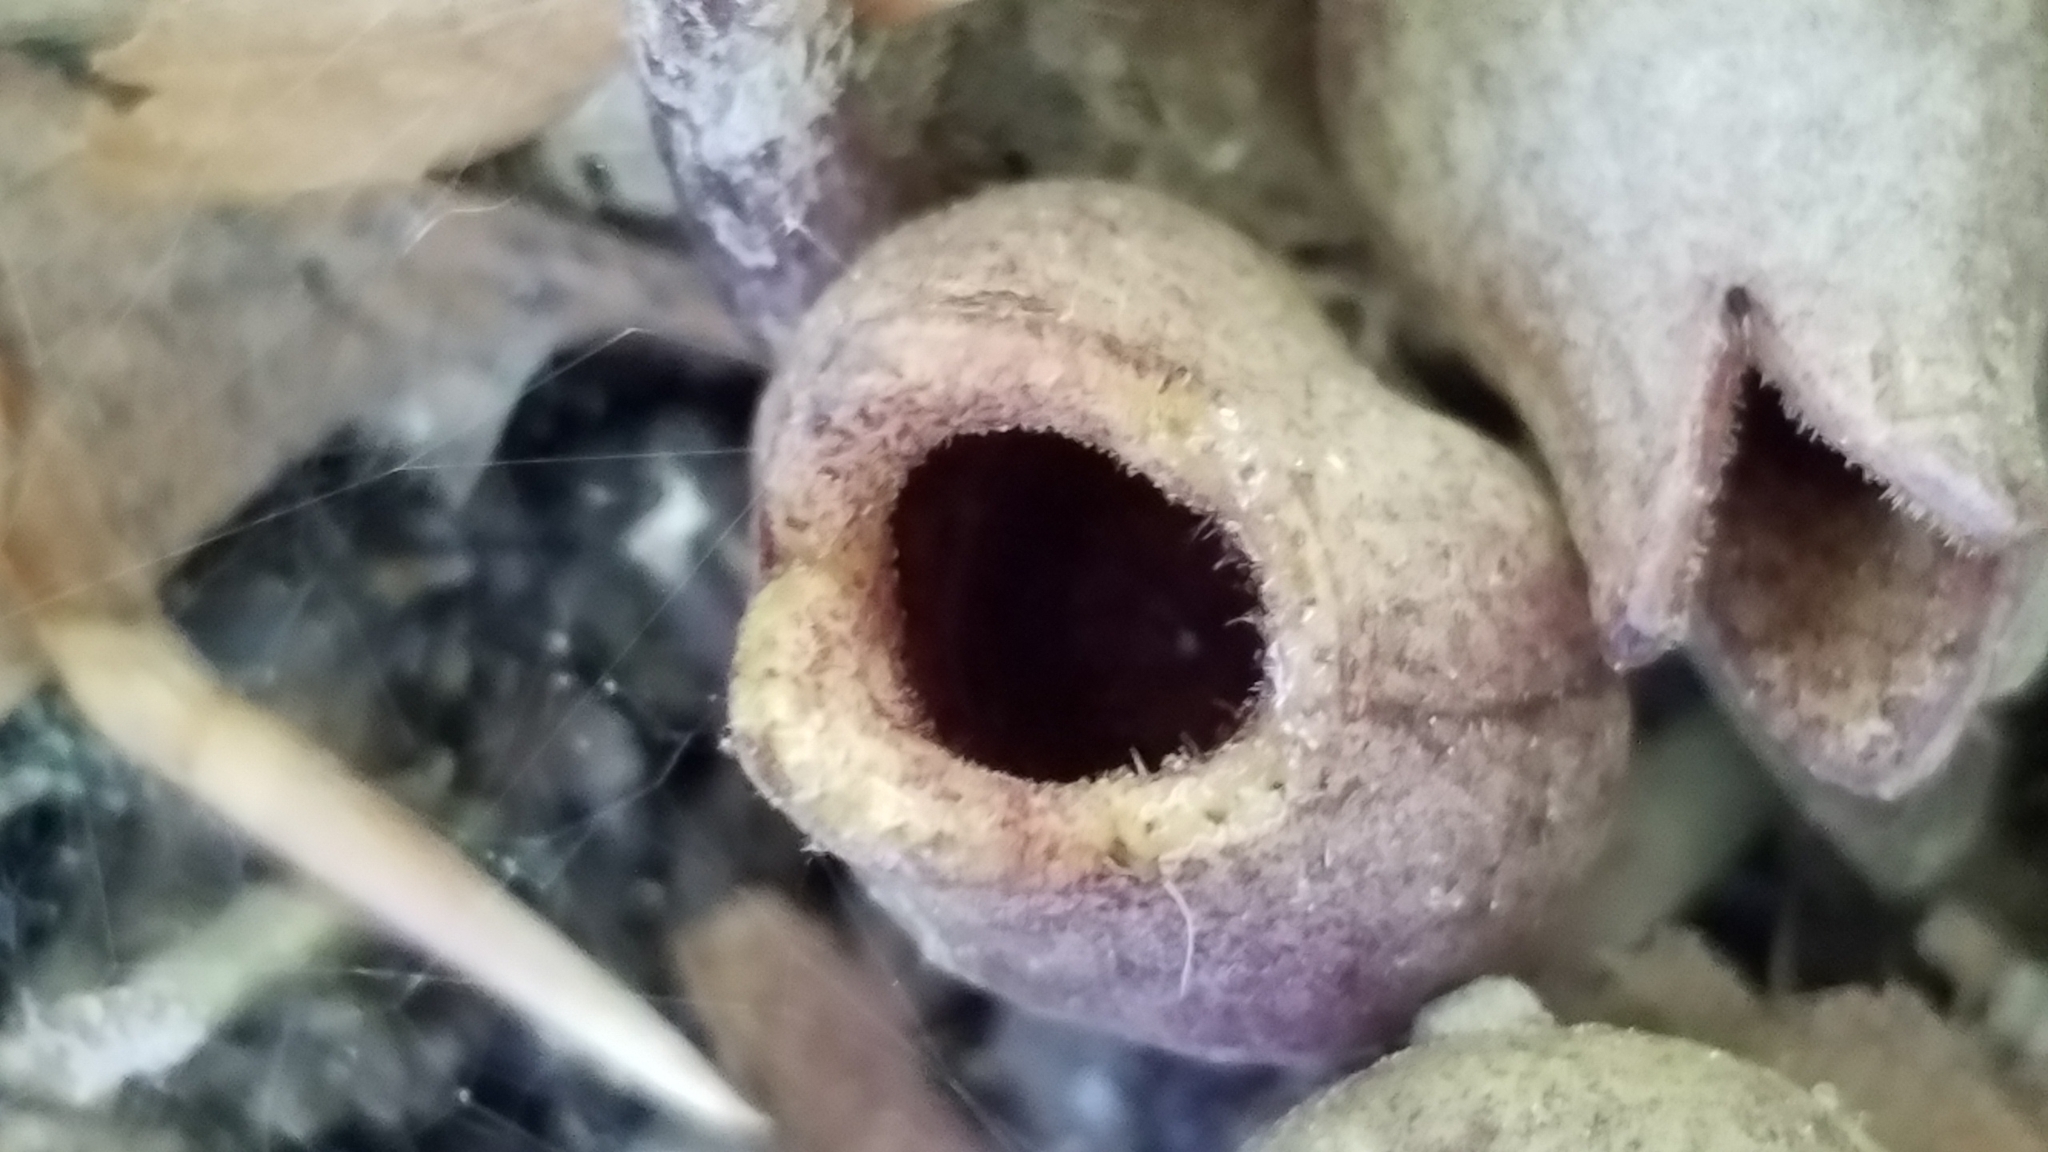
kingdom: Plantae
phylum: Tracheophyta
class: Magnoliopsida
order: Piperales
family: Aristolochiaceae
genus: Hexastylis
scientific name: Hexastylis arifolia
